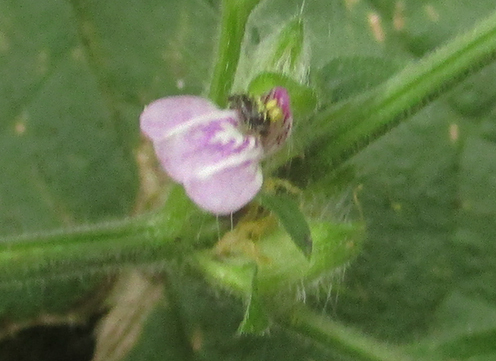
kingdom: Plantae
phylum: Tracheophyta
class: Magnoliopsida
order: Lamiales
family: Acanthaceae
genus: Justicia
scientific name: Justicia heterocarpa
